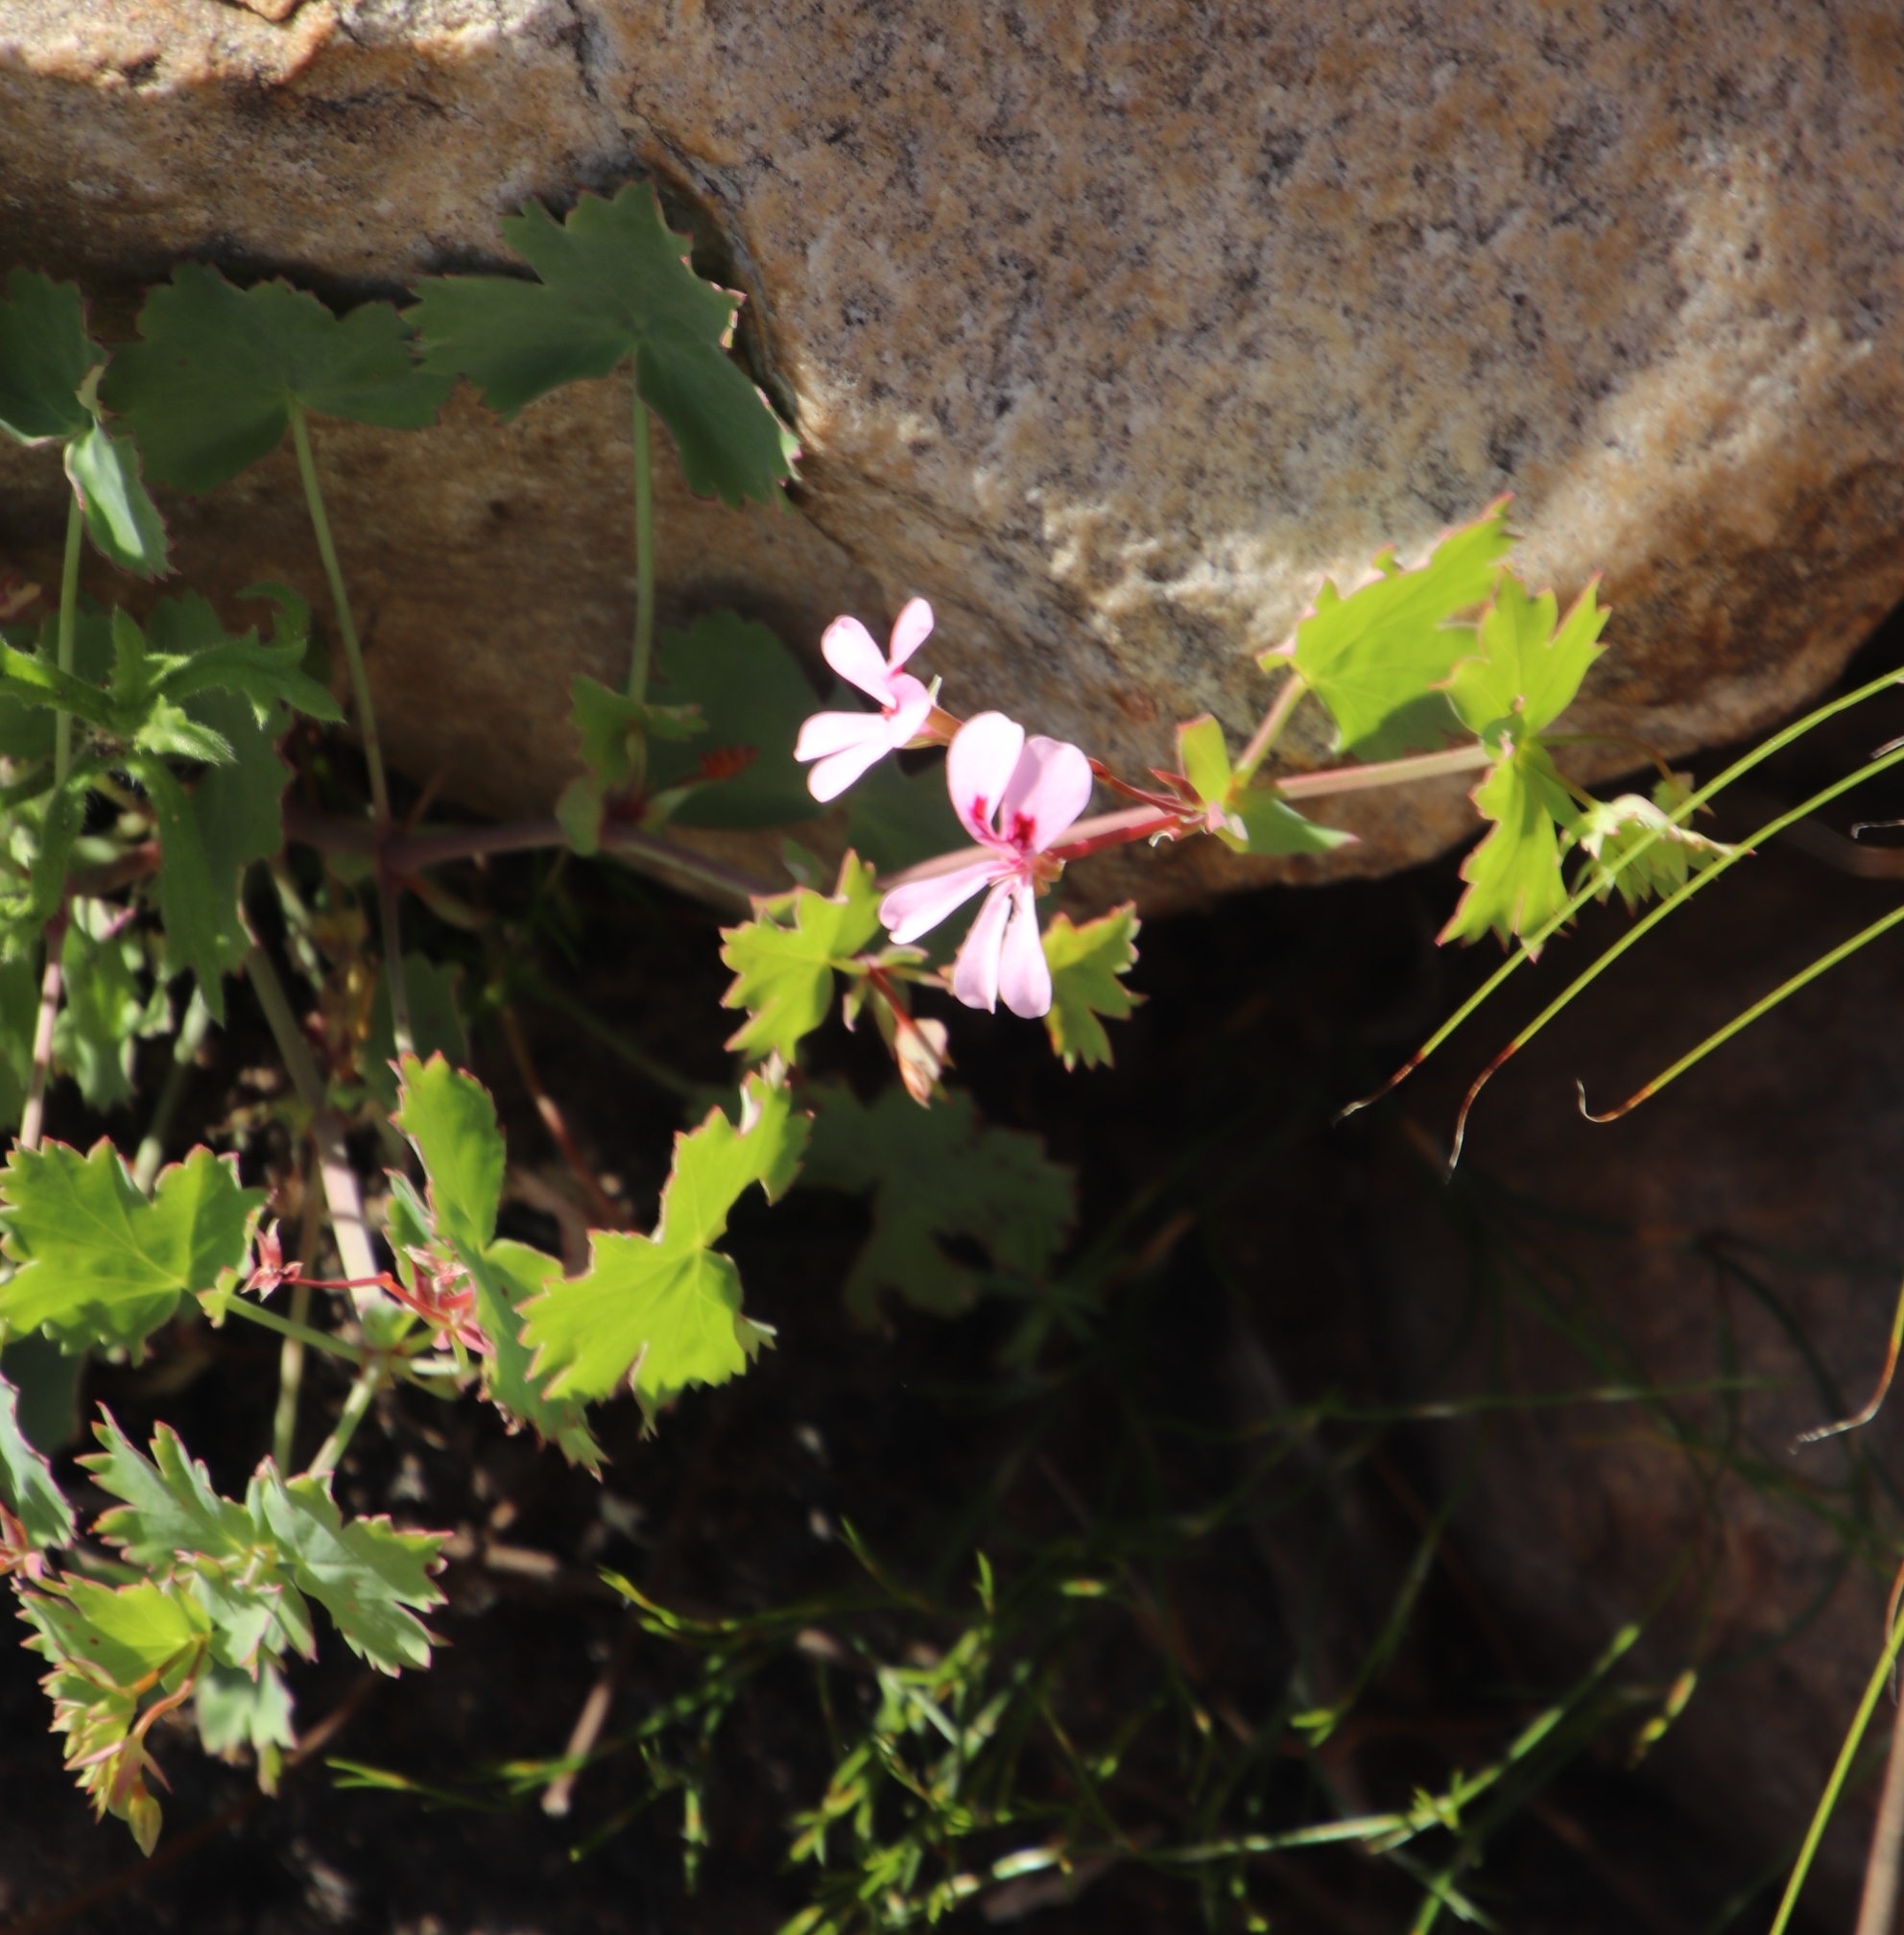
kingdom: Plantae
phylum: Tracheophyta
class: Magnoliopsida
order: Geraniales
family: Geraniaceae
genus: Pelargonium
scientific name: Pelargonium patulum
